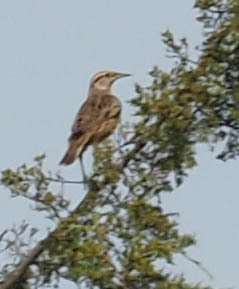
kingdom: Animalia
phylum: Chordata
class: Aves
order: Passeriformes
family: Icteridae
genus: Sturnella
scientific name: Sturnella magna
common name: Eastern meadowlark
